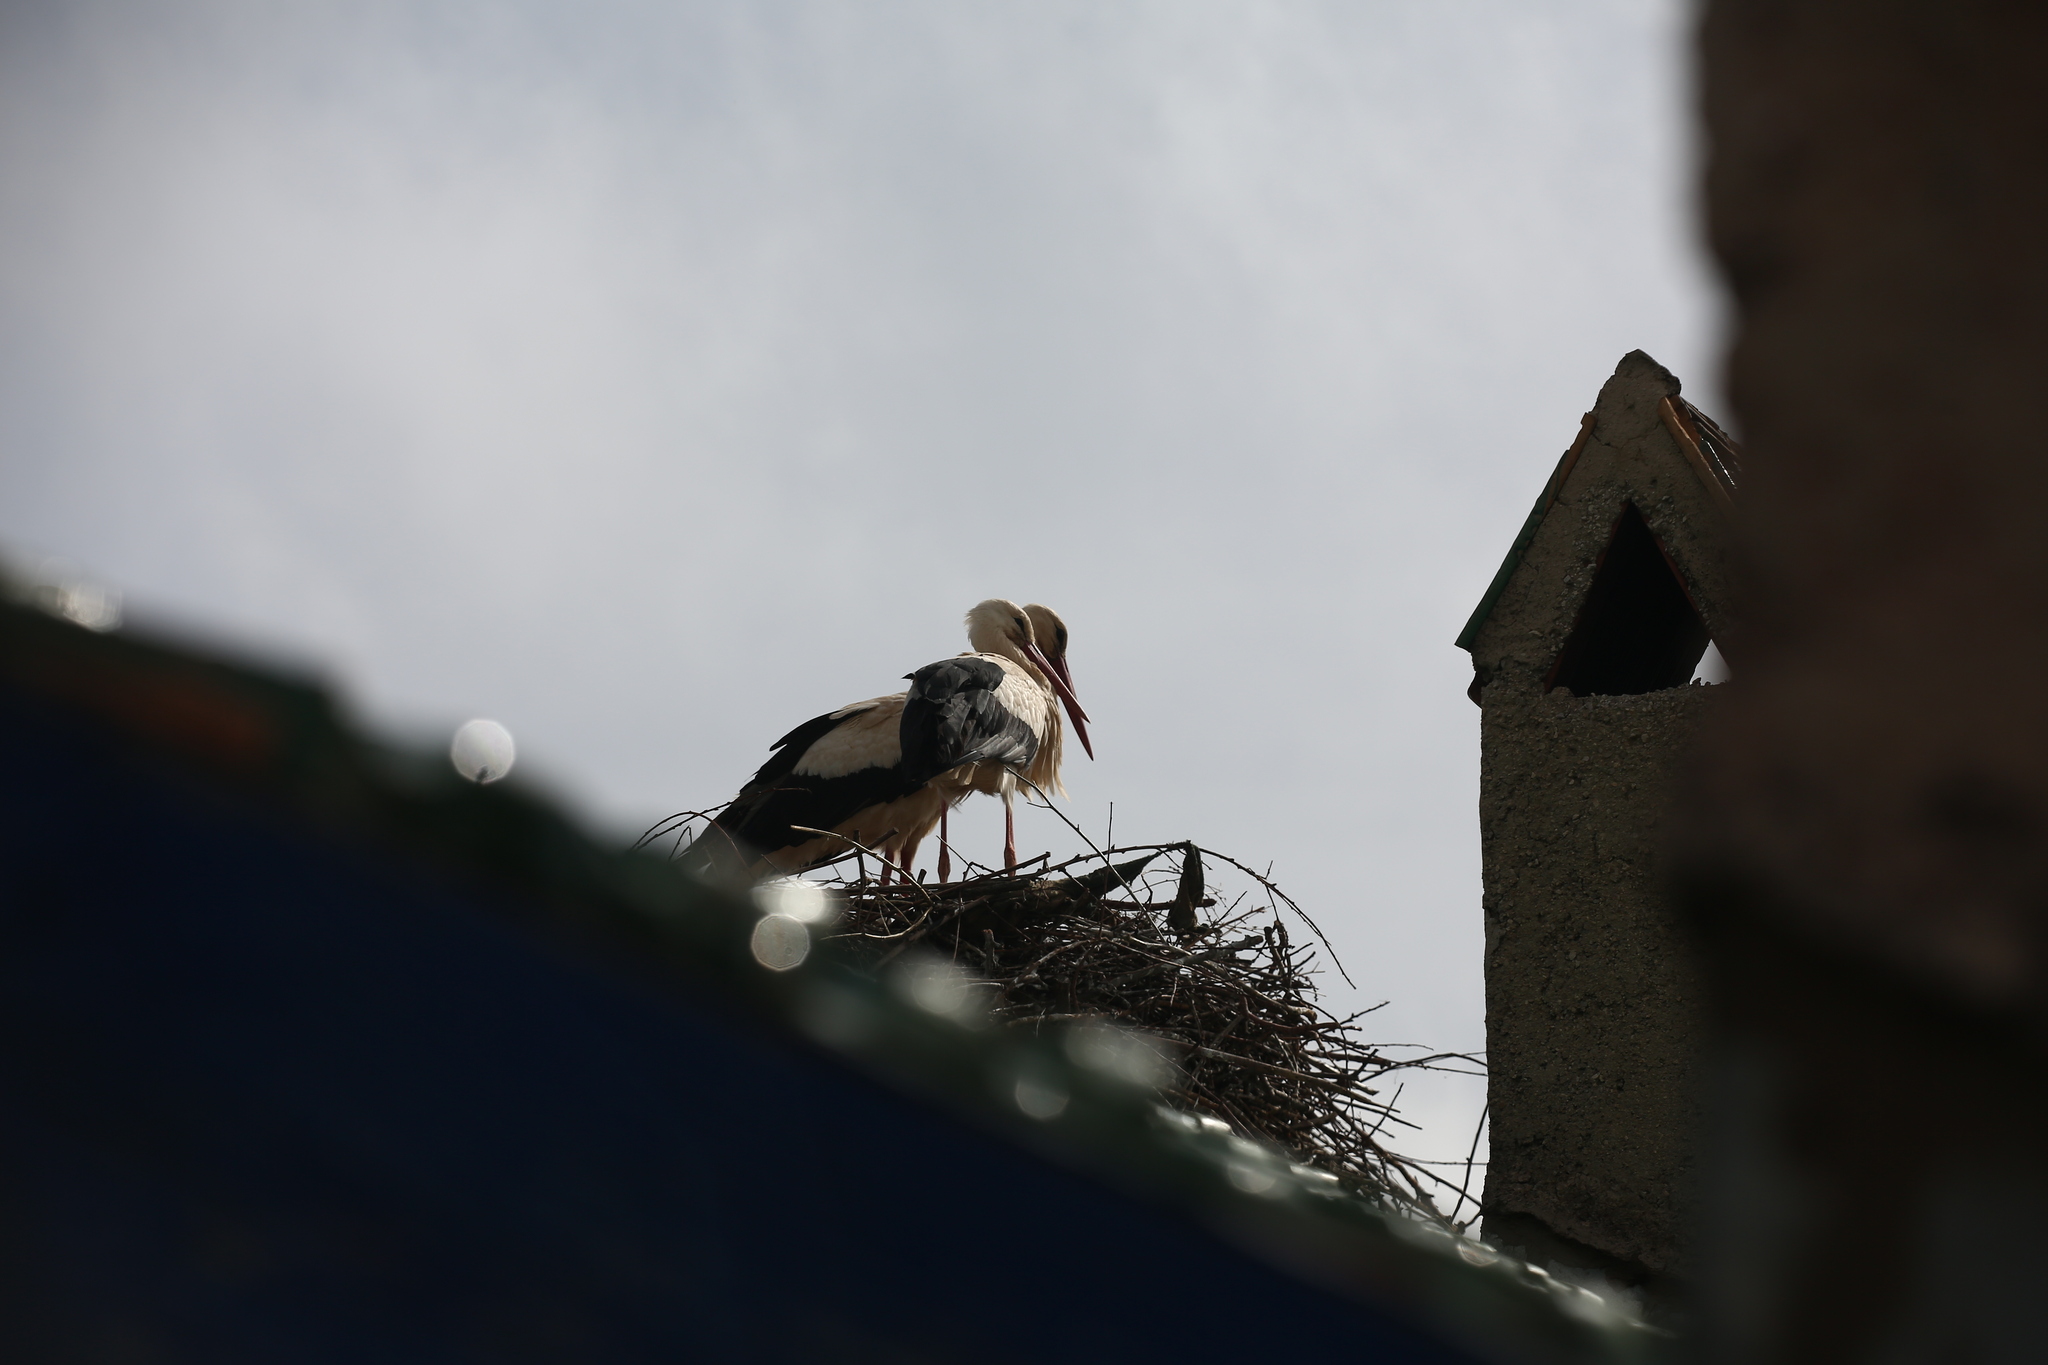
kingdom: Animalia
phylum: Chordata
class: Aves
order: Ciconiiformes
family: Ciconiidae
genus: Ciconia
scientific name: Ciconia ciconia
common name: White stork
